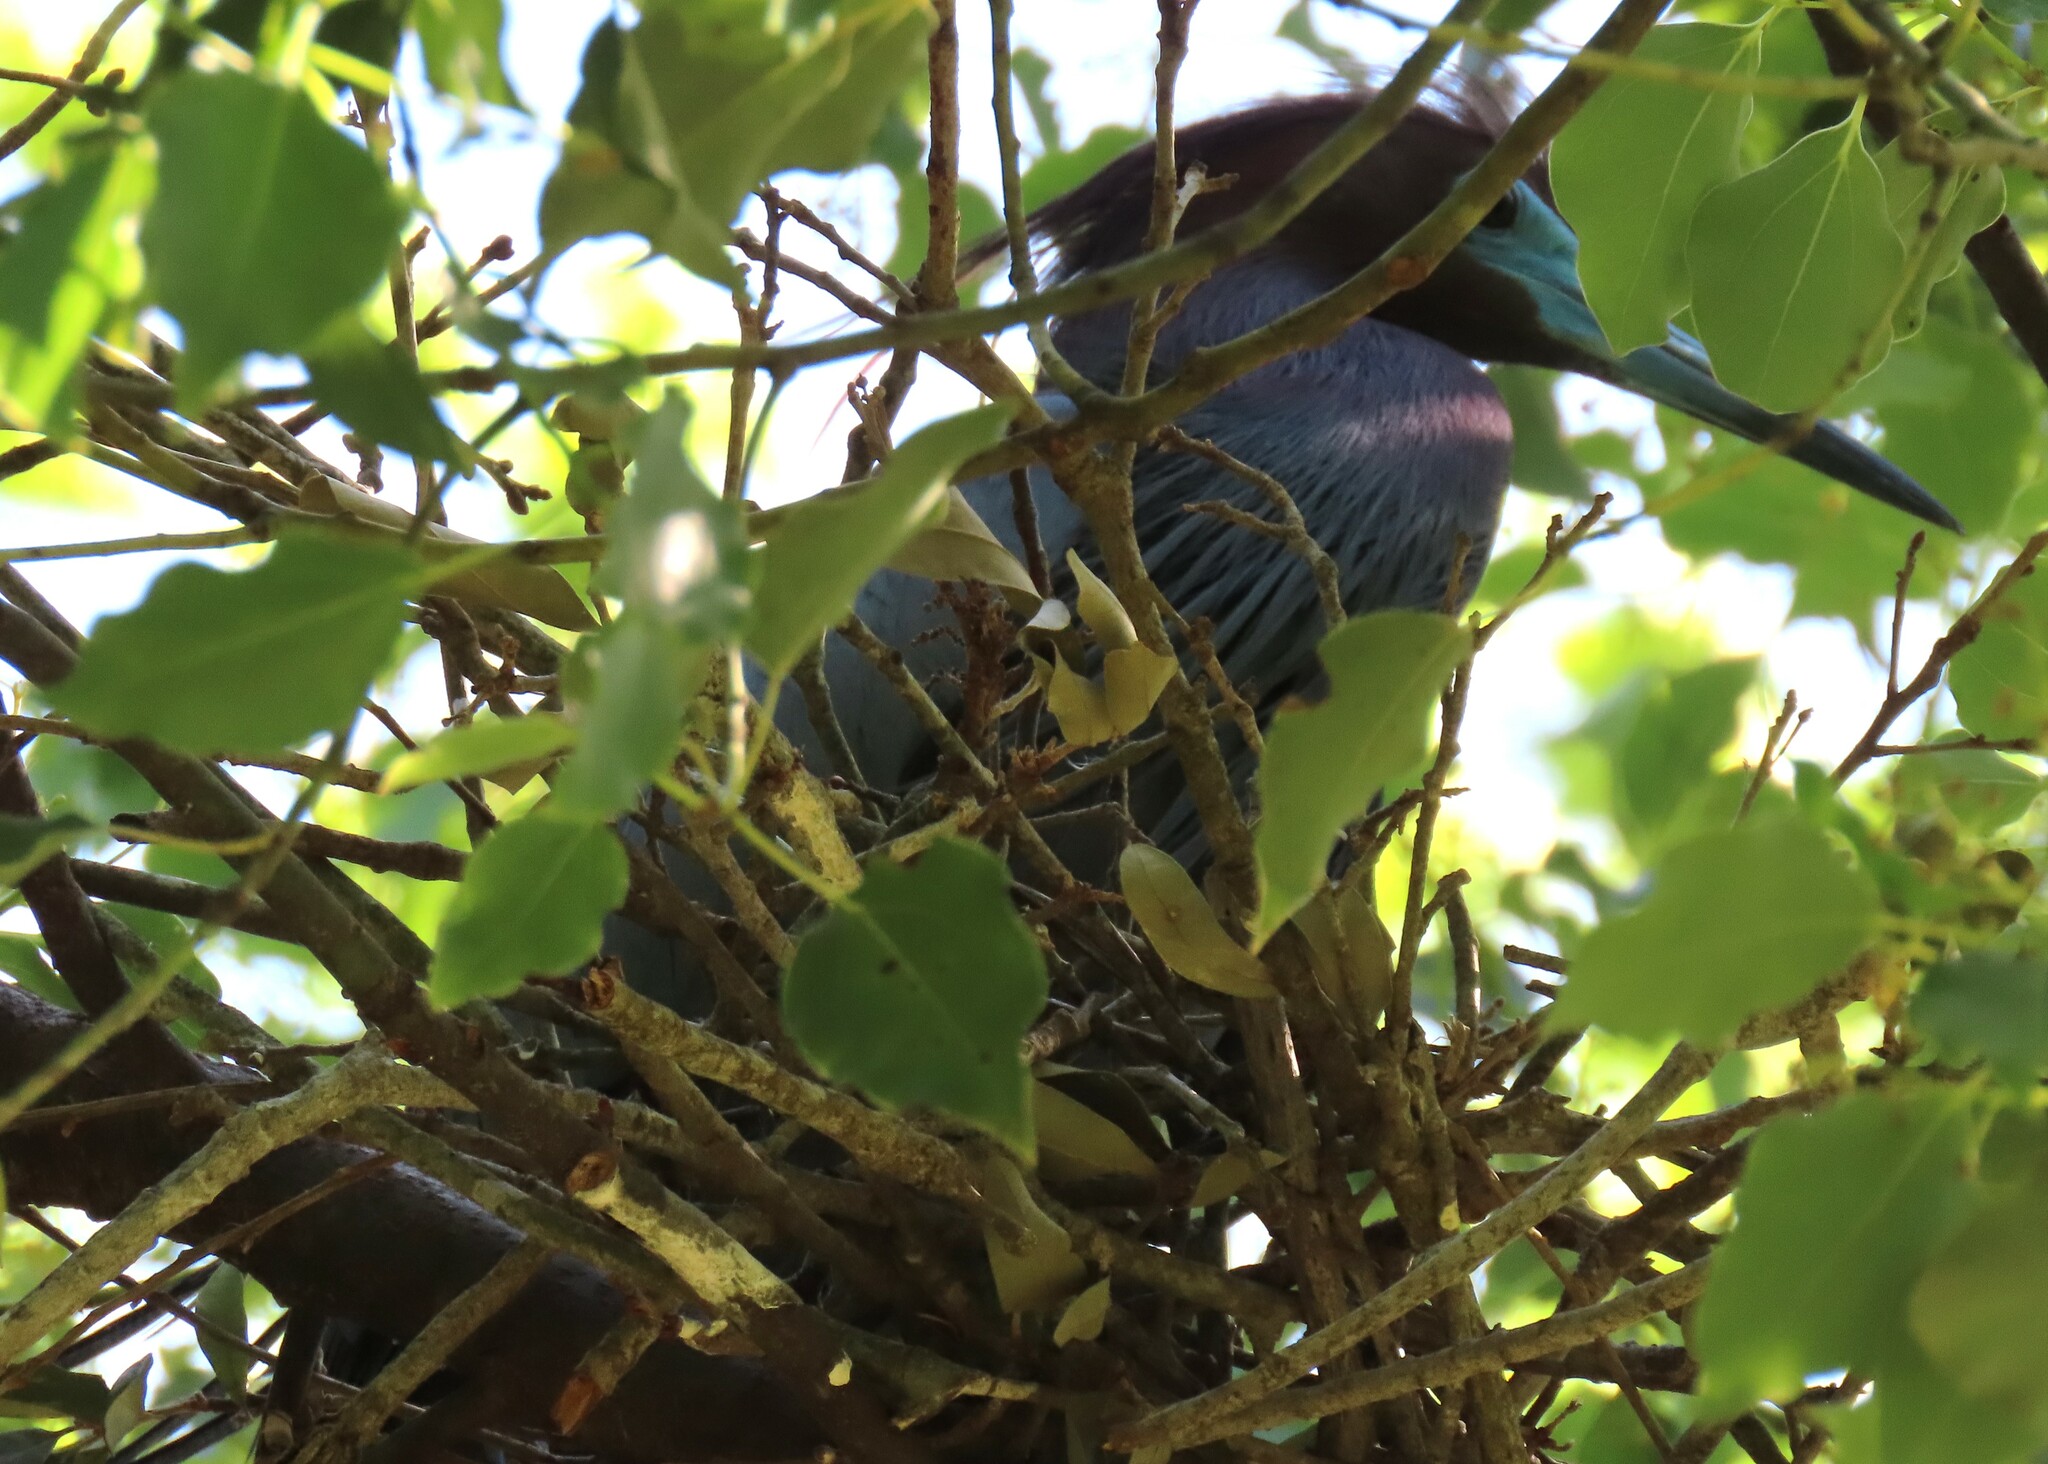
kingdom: Animalia
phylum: Chordata
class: Aves
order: Pelecaniformes
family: Ardeidae
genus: Egretta
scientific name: Egretta caerulea
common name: Little blue heron
